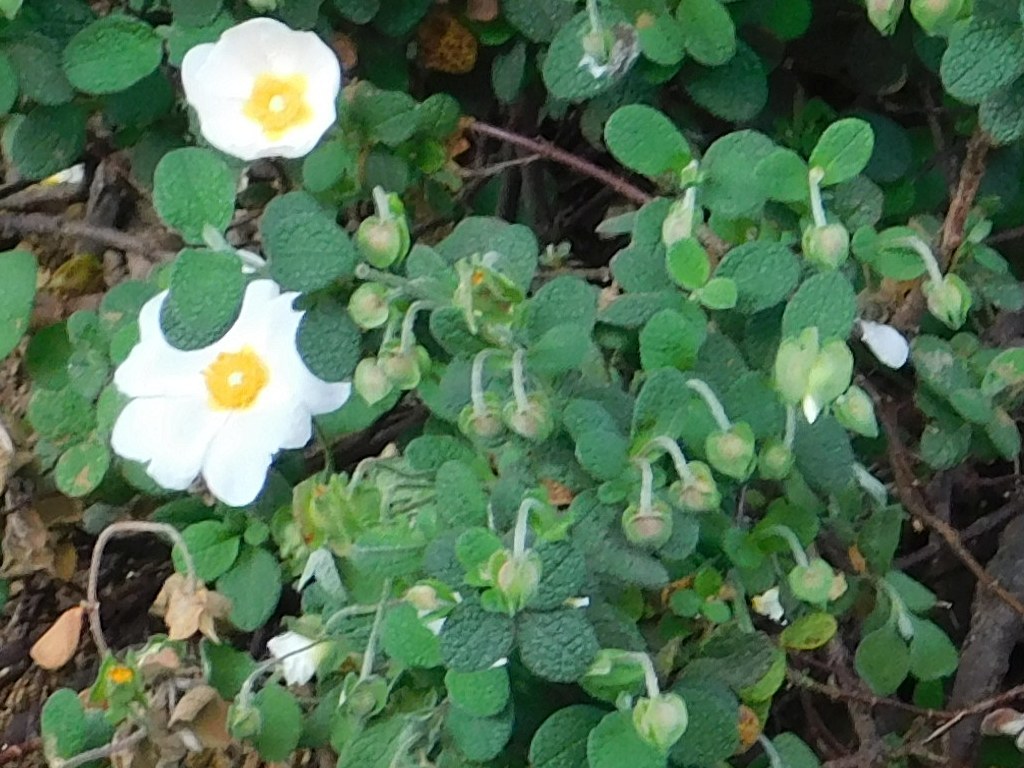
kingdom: Plantae
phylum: Tracheophyta
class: Magnoliopsida
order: Malvales
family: Cistaceae
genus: Cistus
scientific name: Cistus salviifolius
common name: Salvia cistus
